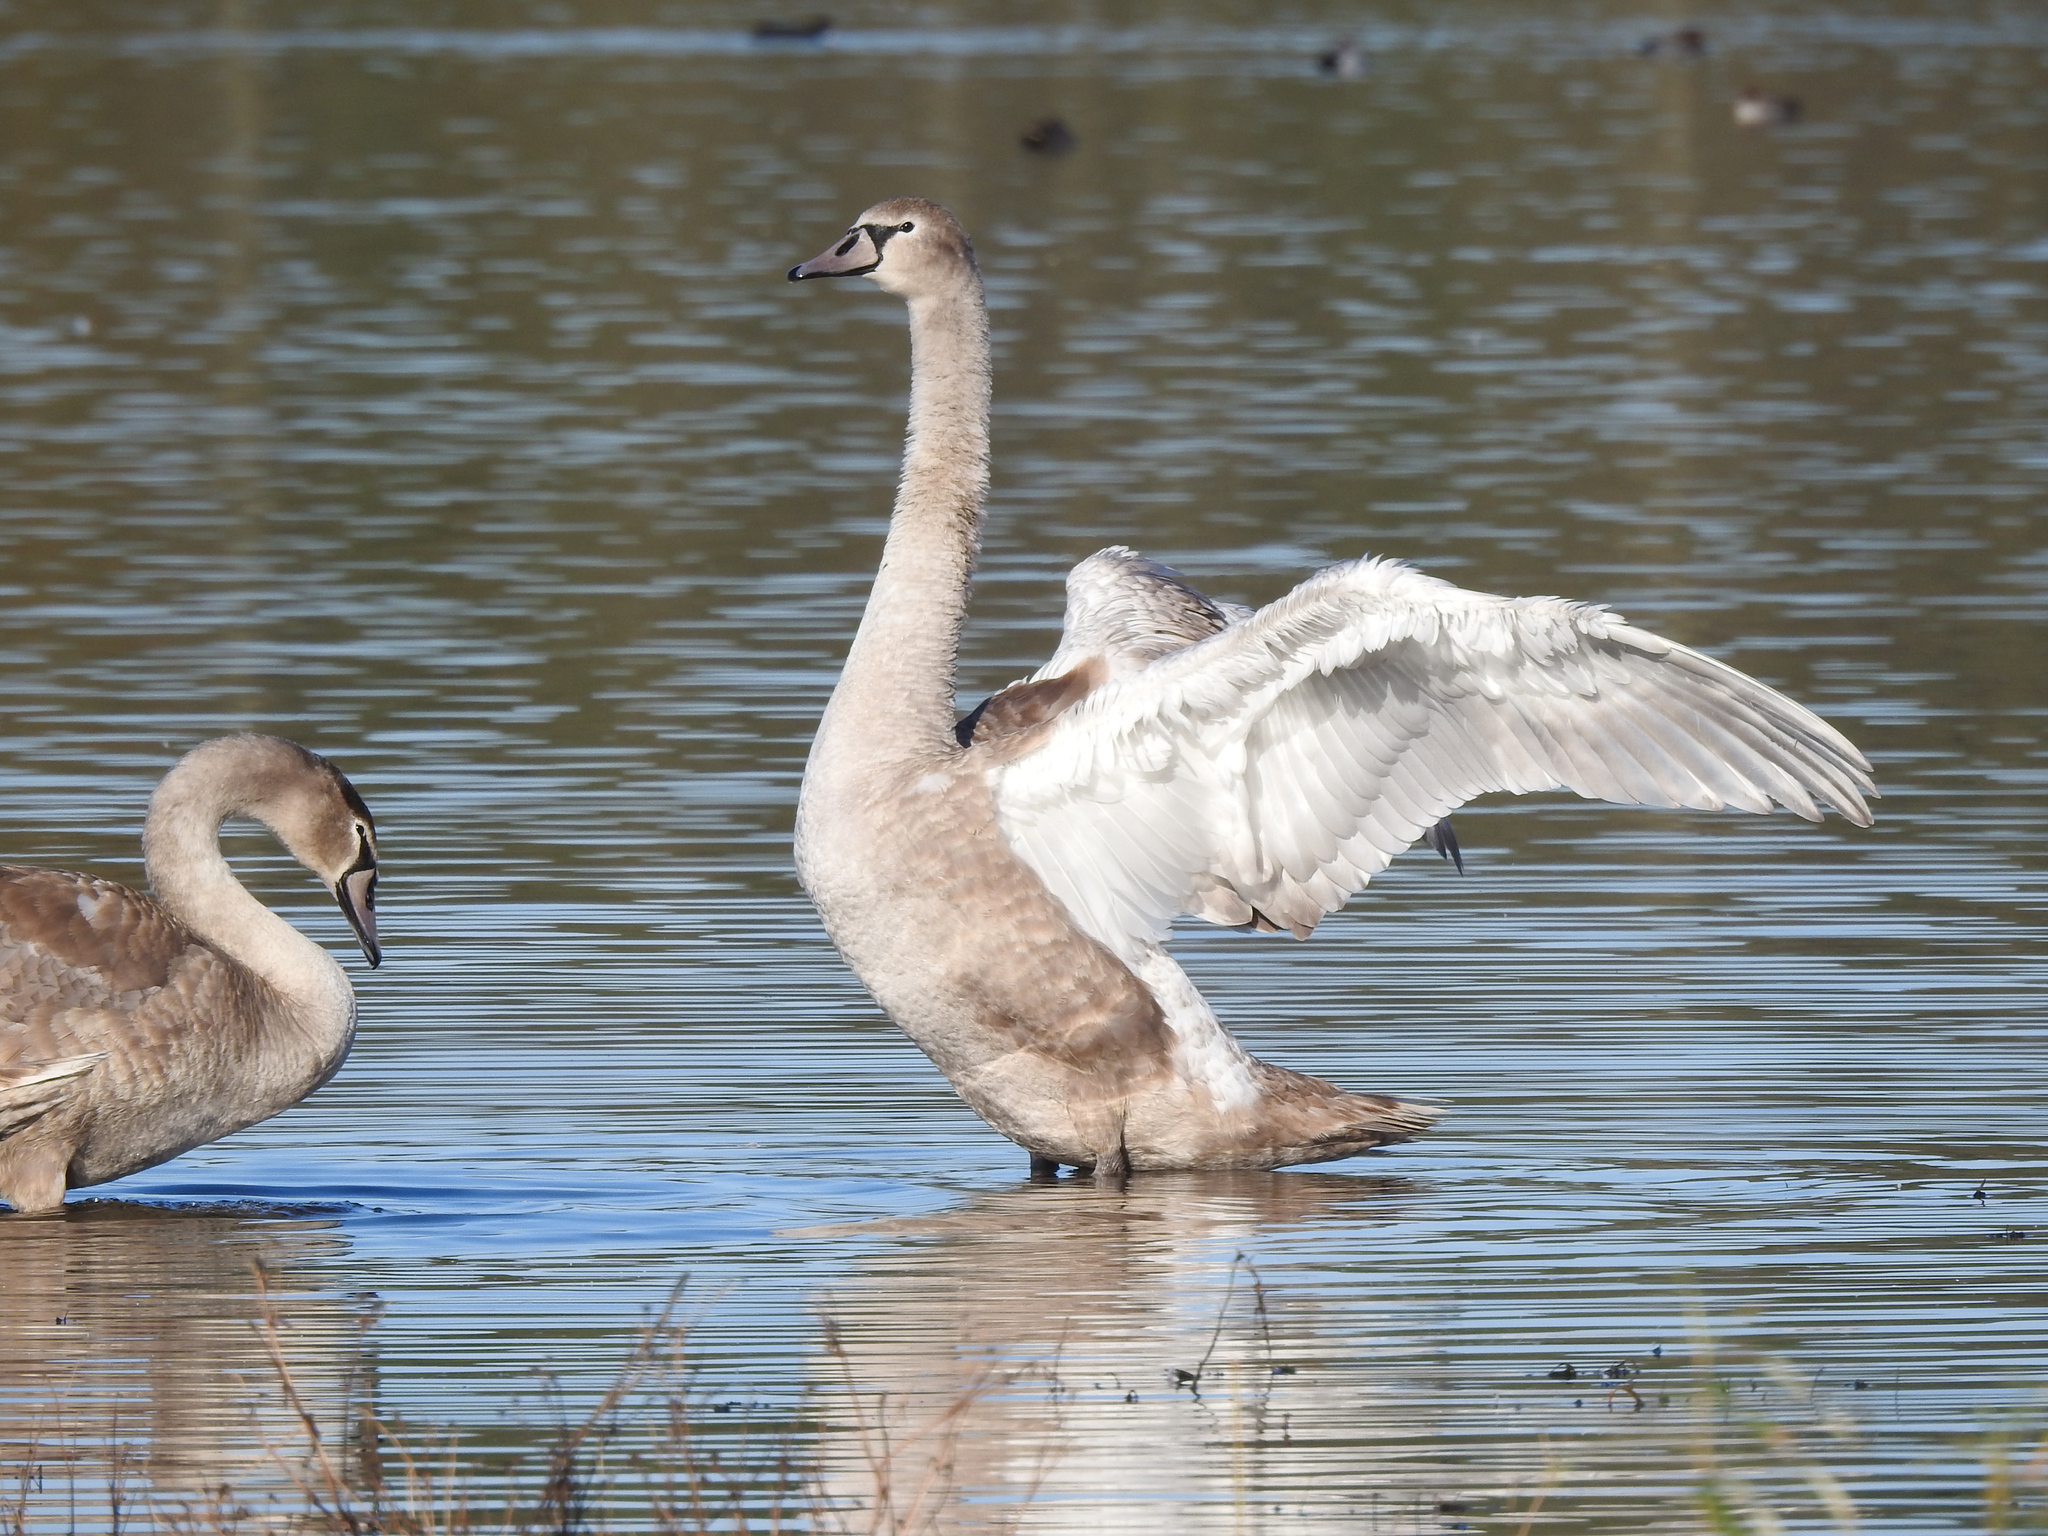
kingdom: Animalia
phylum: Chordata
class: Aves
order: Anseriformes
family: Anatidae
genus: Cygnus
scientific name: Cygnus olor
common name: Mute swan
